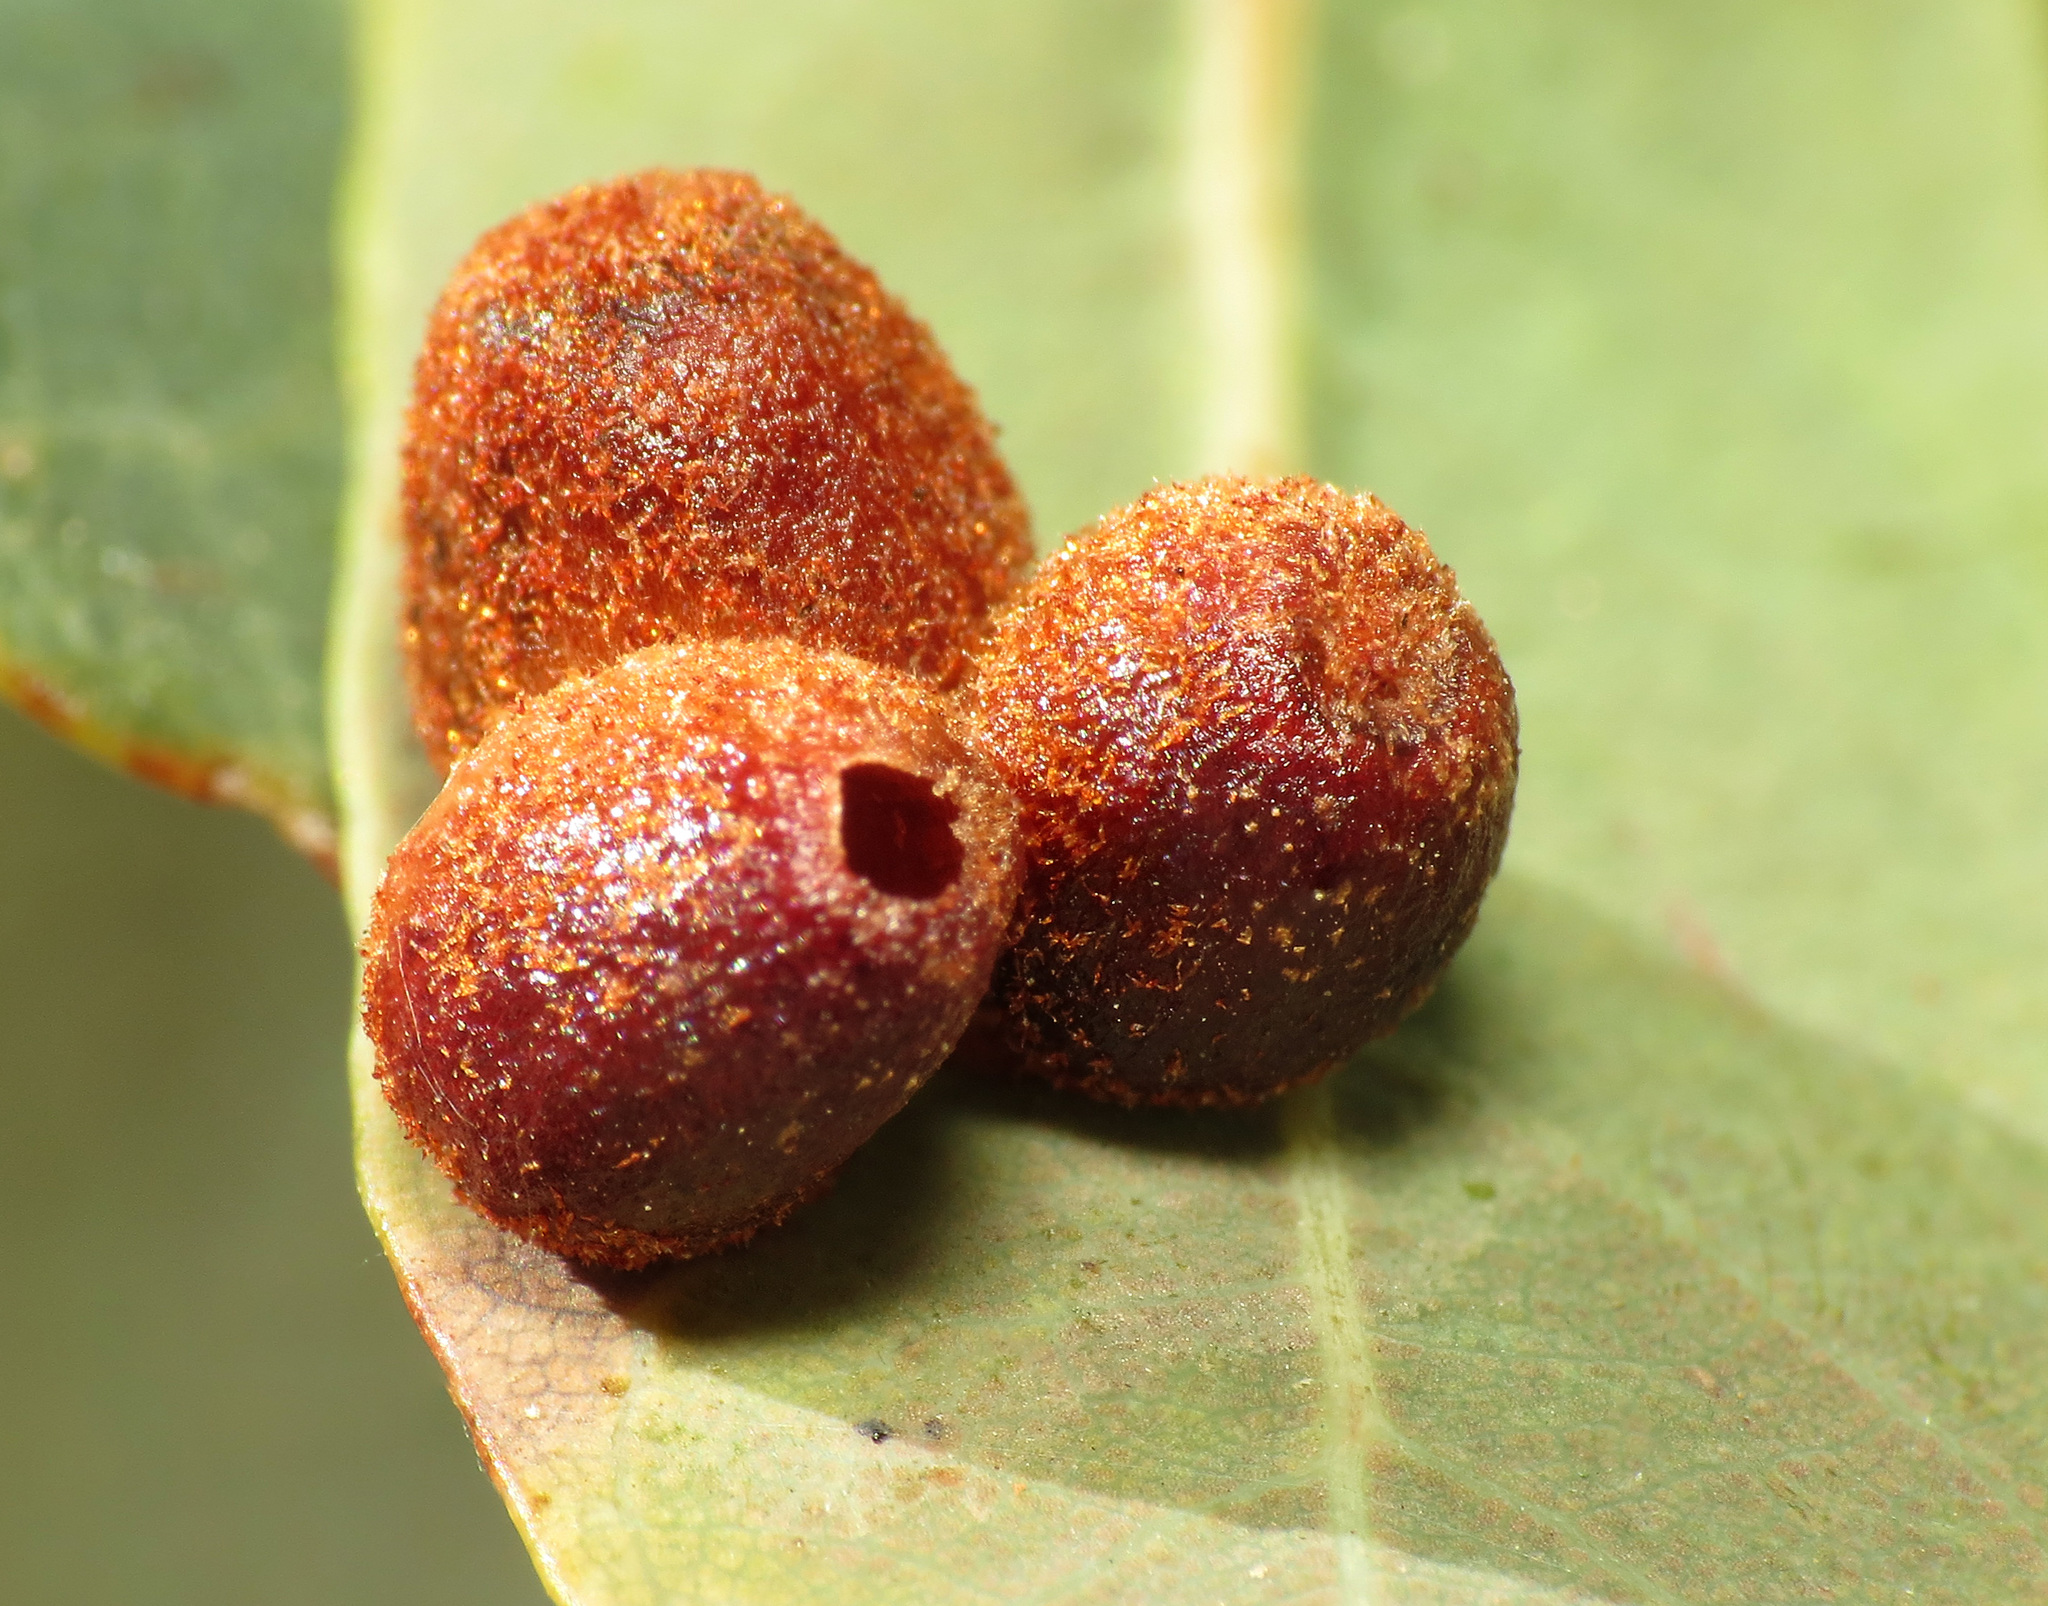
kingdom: Animalia
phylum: Arthropoda
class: Insecta
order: Hymenoptera
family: Cynipidae
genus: Andricus
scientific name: Andricus
